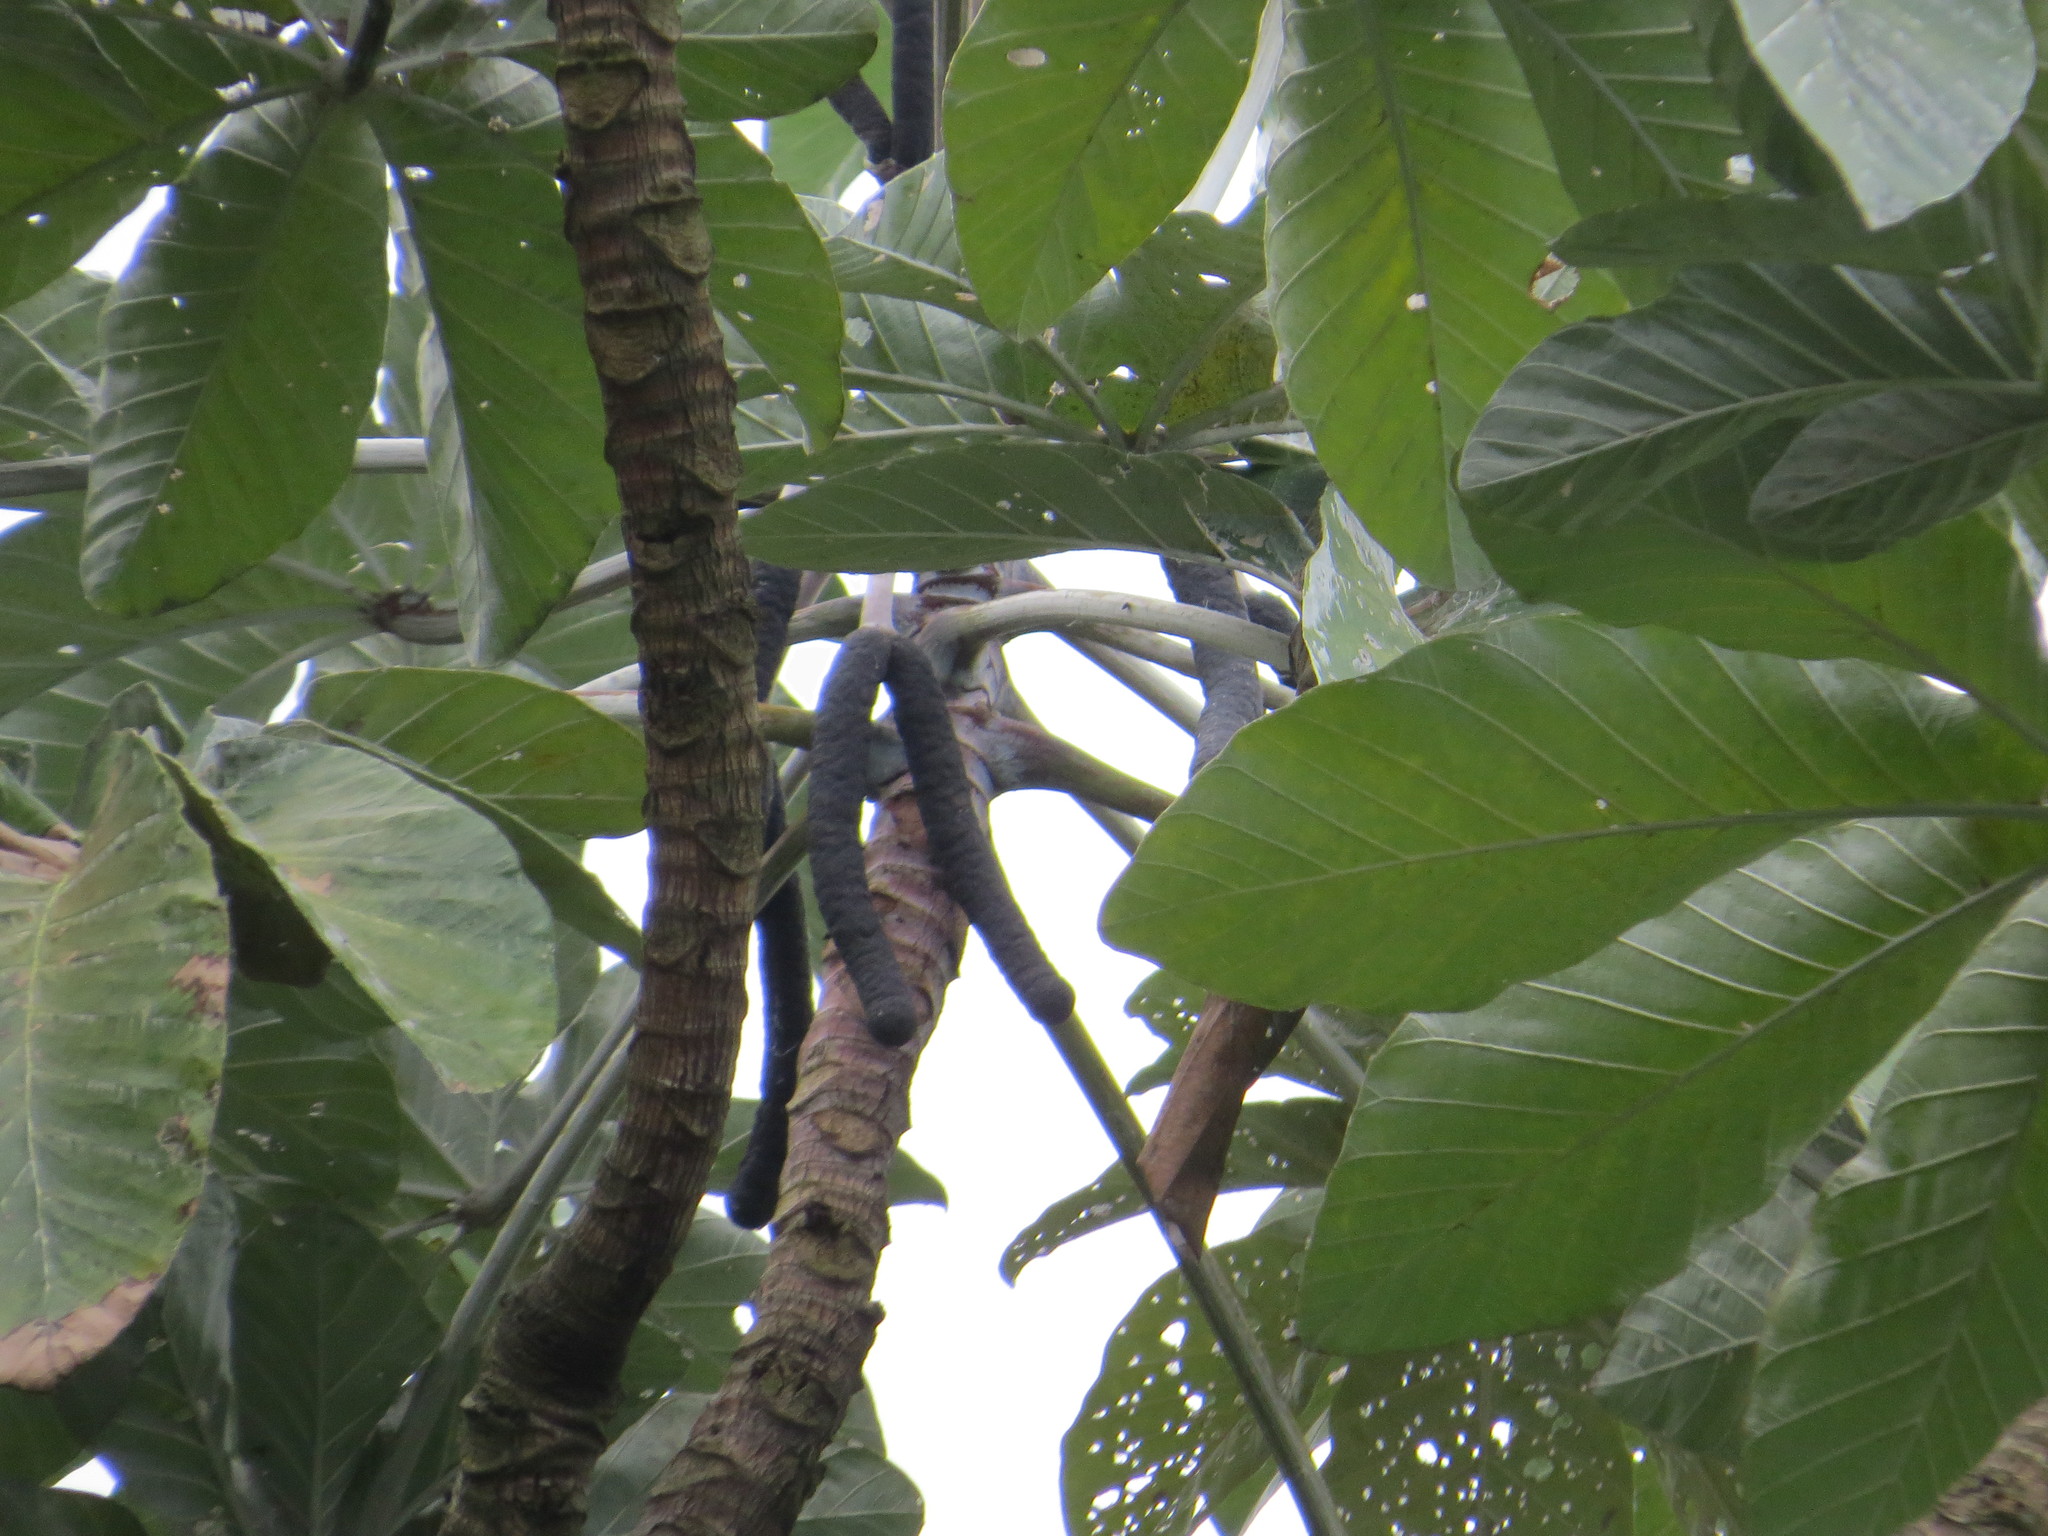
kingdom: Plantae
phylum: Tracheophyta
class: Magnoliopsida
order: Rosales
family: Urticaceae
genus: Cecropia
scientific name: Cecropia hololeuca
